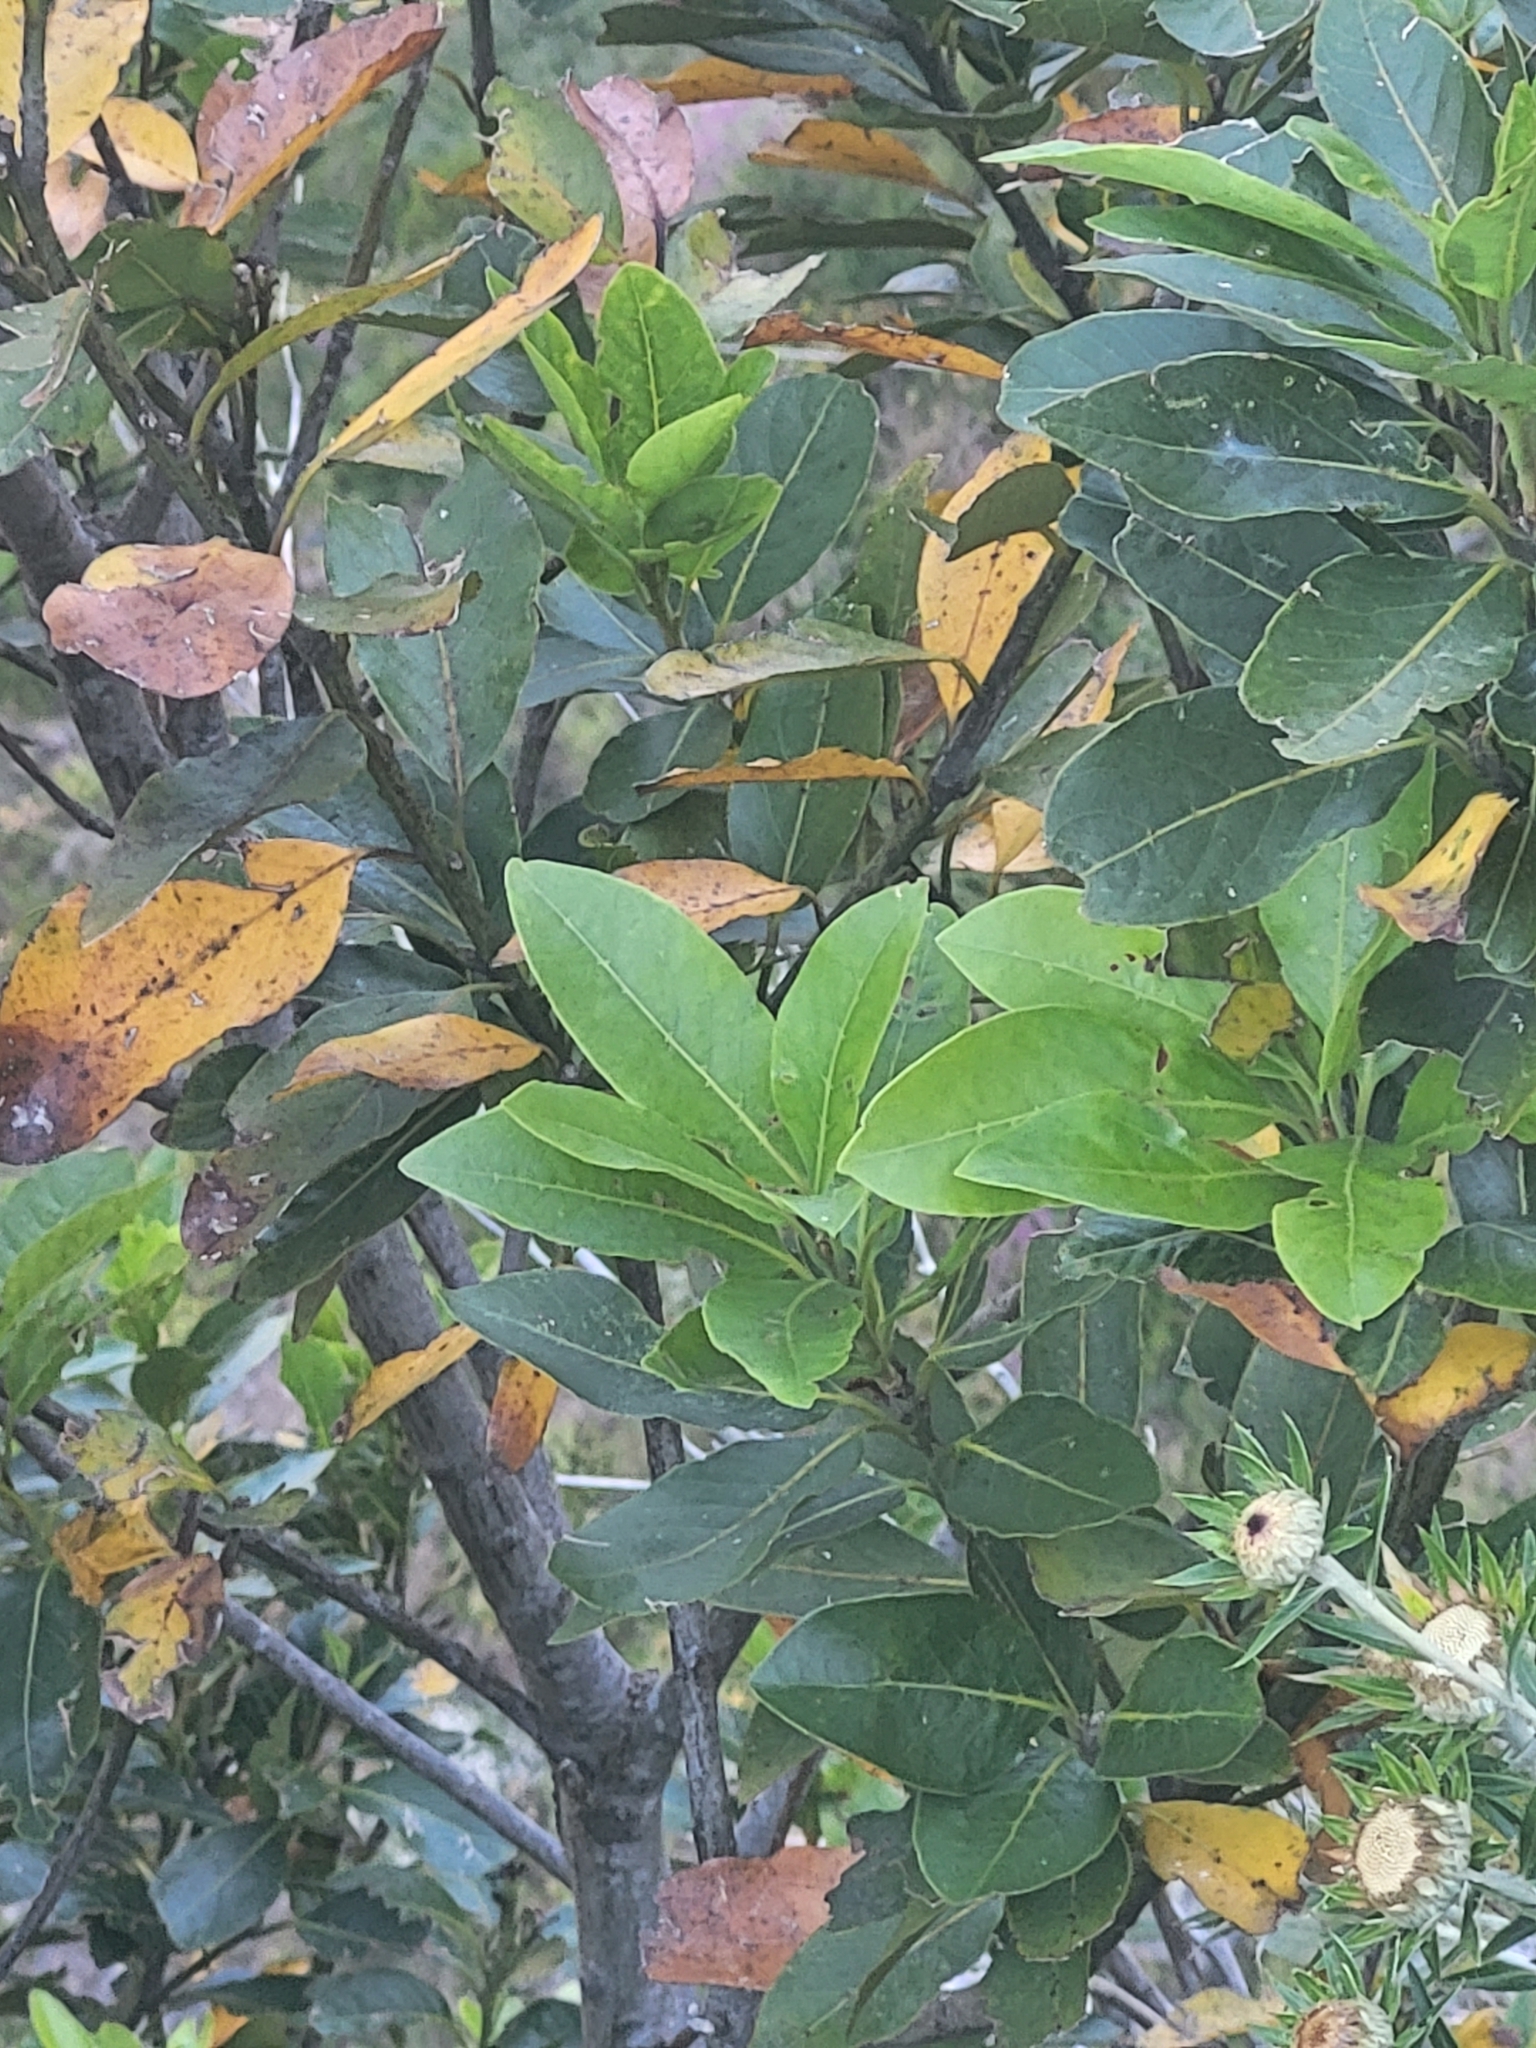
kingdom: Plantae
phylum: Tracheophyta
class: Magnoliopsida
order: Laurales
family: Lauraceae
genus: Laurus
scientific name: Laurus novocanariensis
